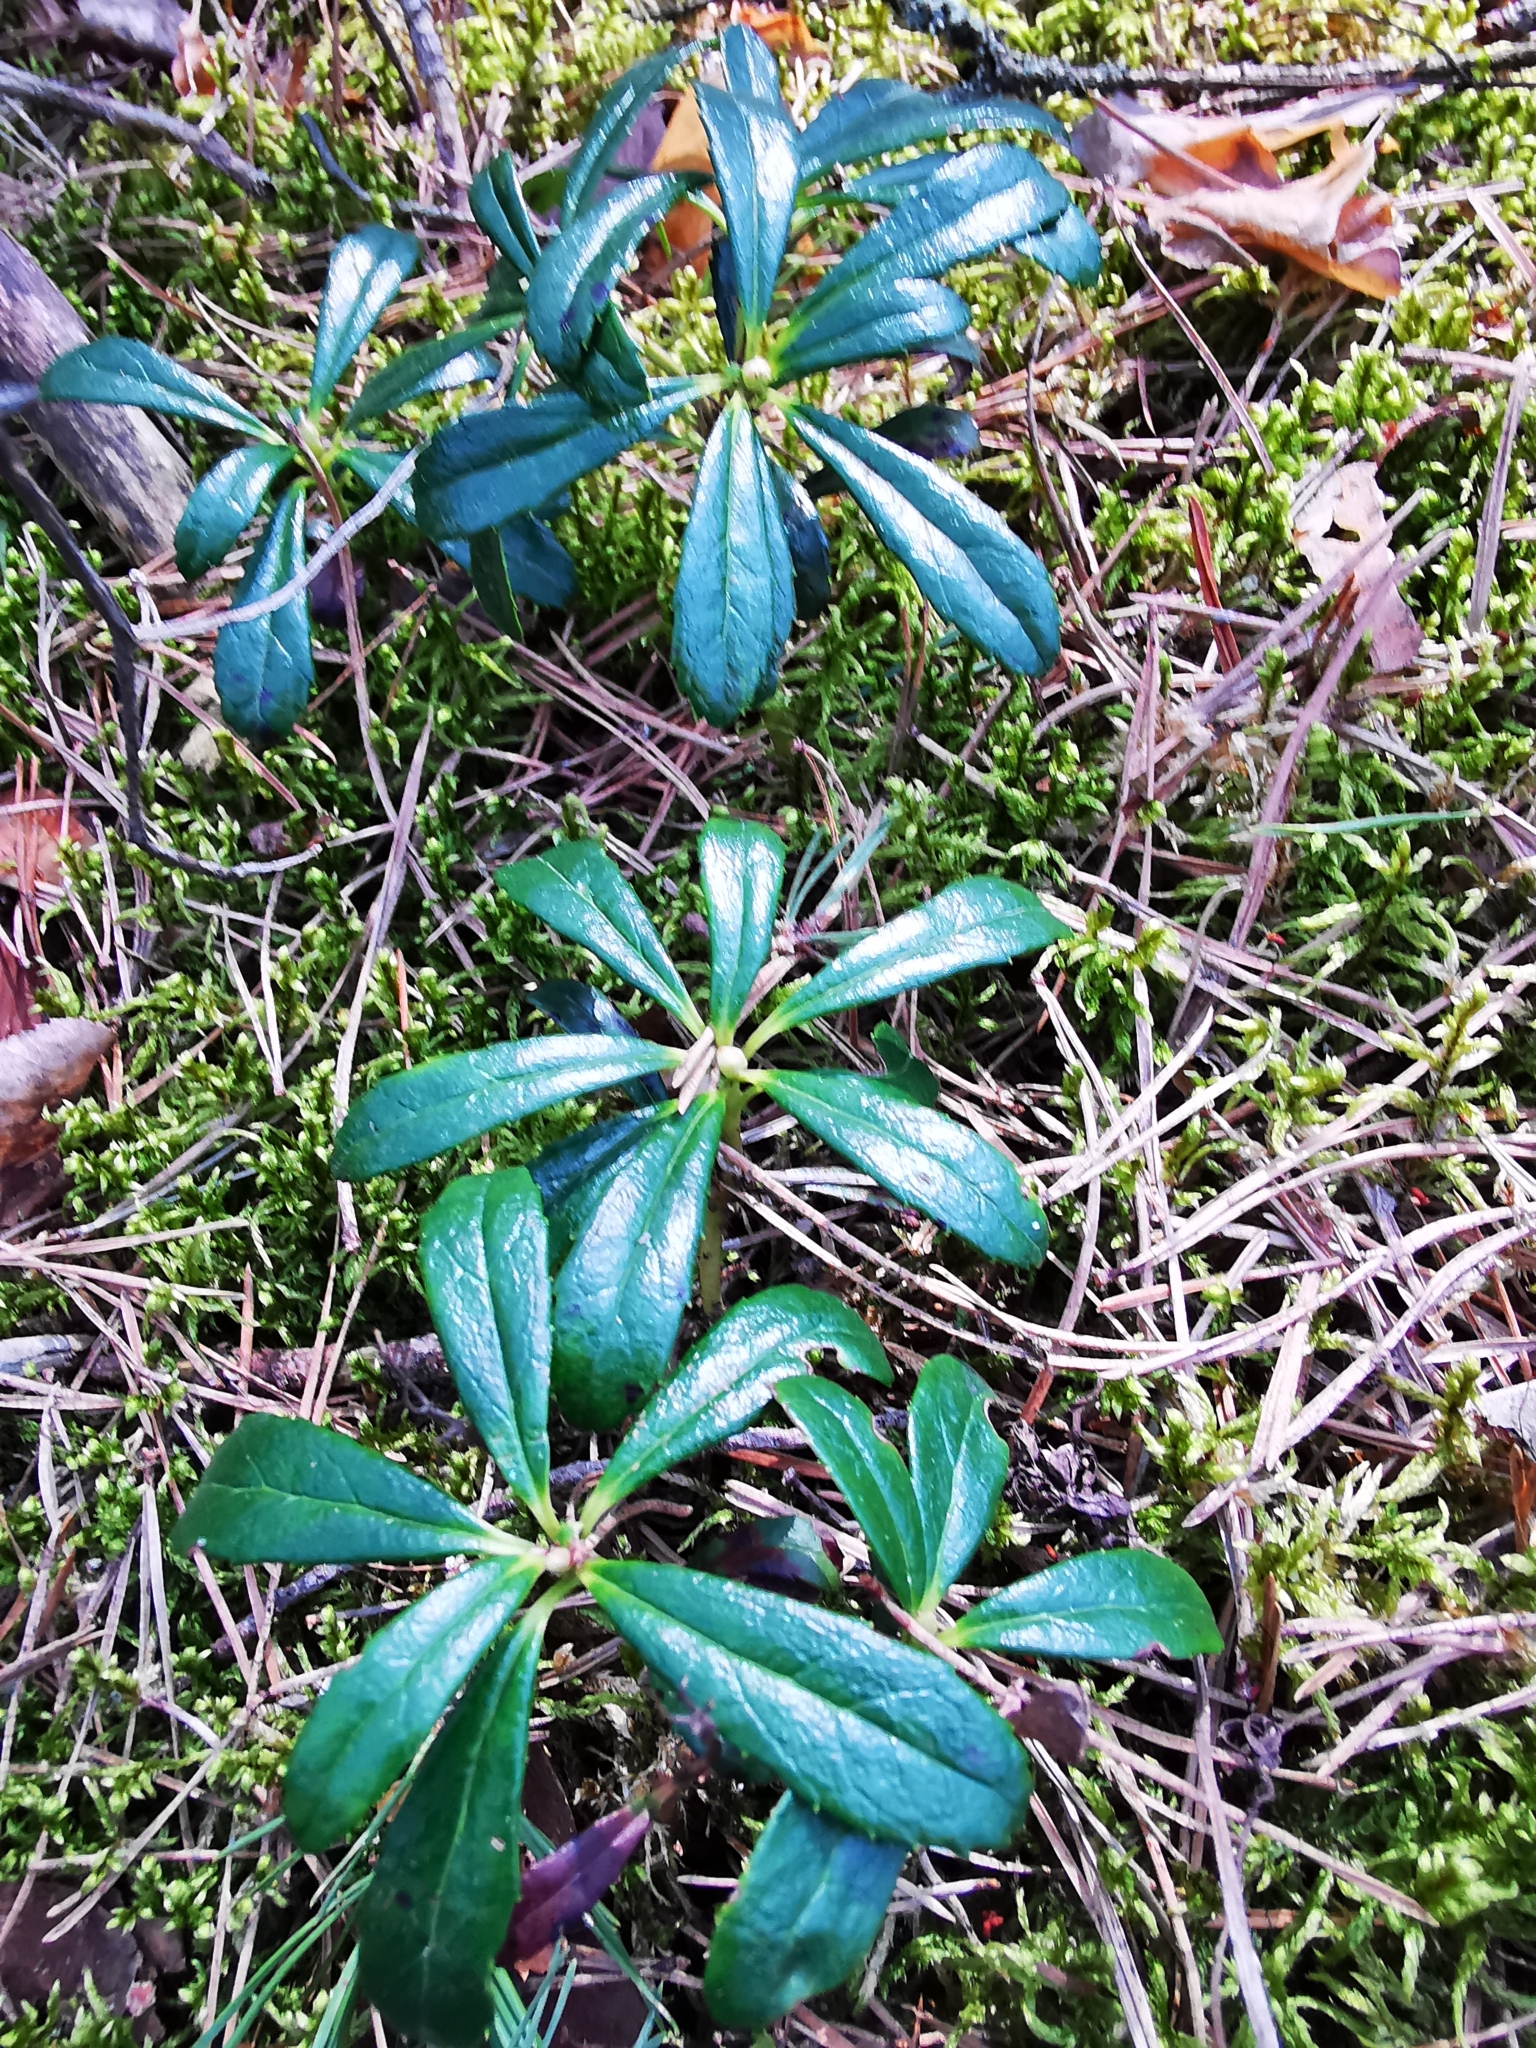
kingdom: Plantae
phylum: Tracheophyta
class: Magnoliopsida
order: Ericales
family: Ericaceae
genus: Chimaphila
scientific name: Chimaphila umbellata
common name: Pipsissewa
